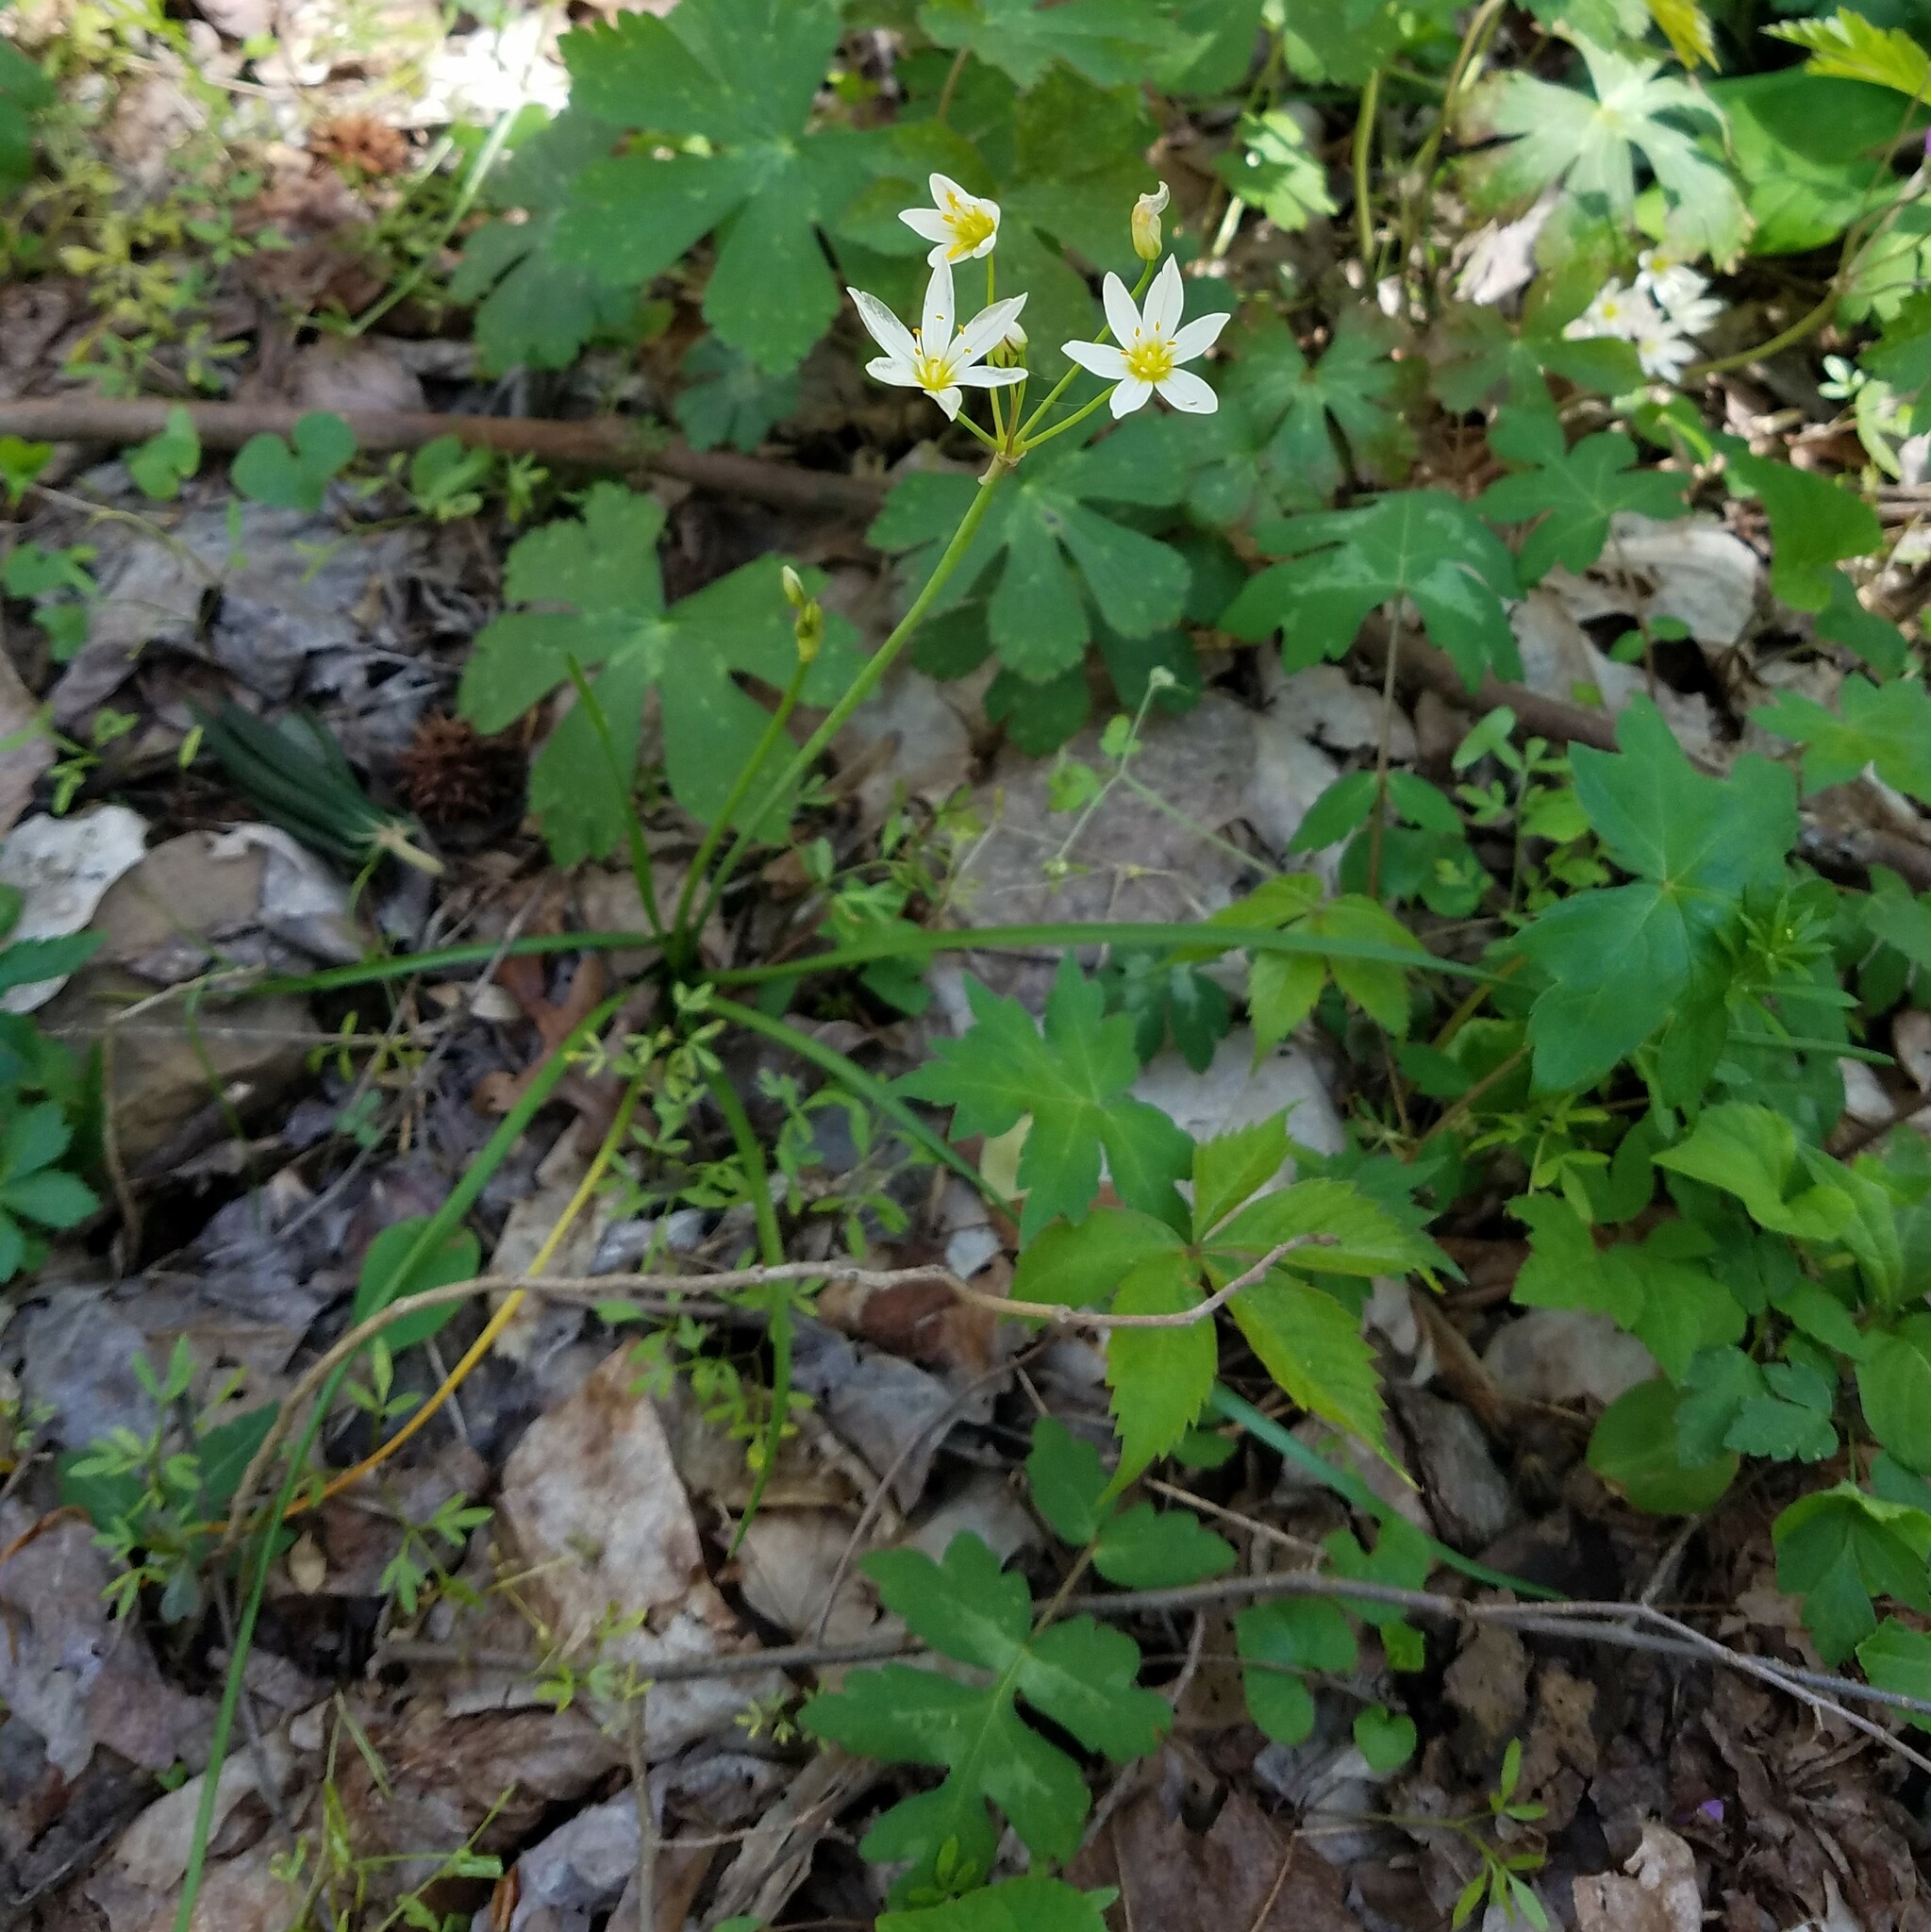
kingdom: Plantae
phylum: Tracheophyta
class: Liliopsida
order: Asparagales
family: Amaryllidaceae
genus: Nothoscordum
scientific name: Nothoscordum bivalve
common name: Crow-poison
